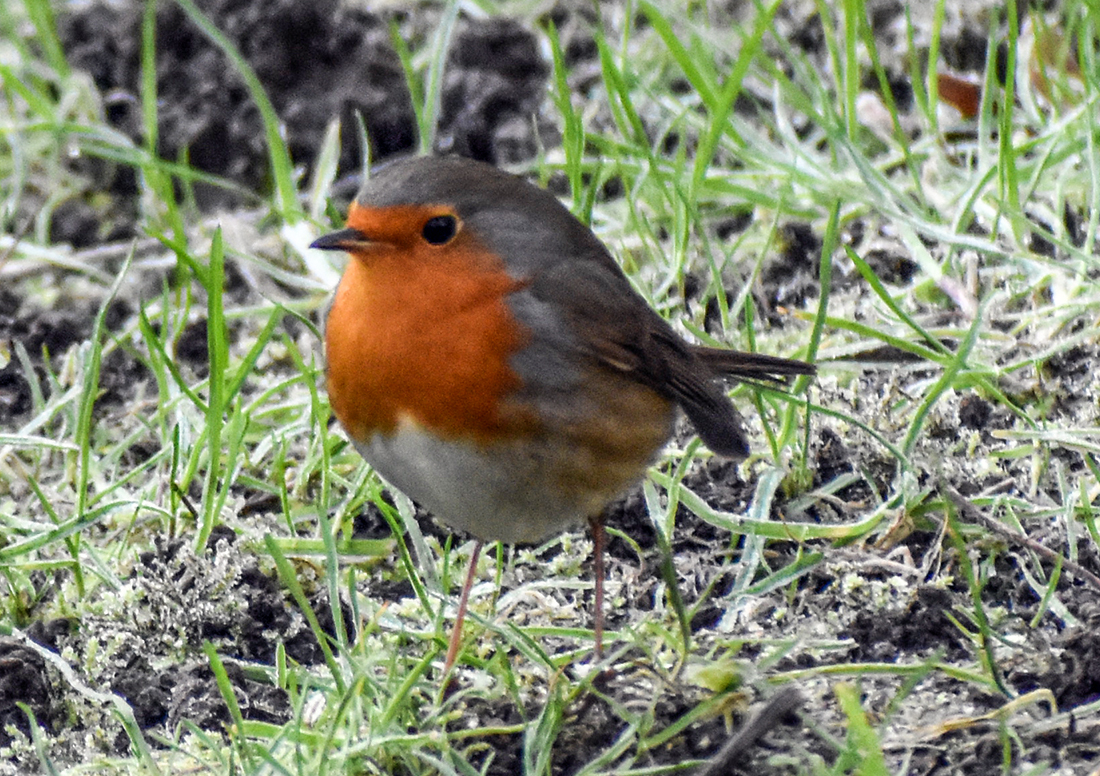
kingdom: Animalia
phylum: Chordata
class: Aves
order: Passeriformes
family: Muscicapidae
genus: Erithacus
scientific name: Erithacus rubecula
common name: European robin
